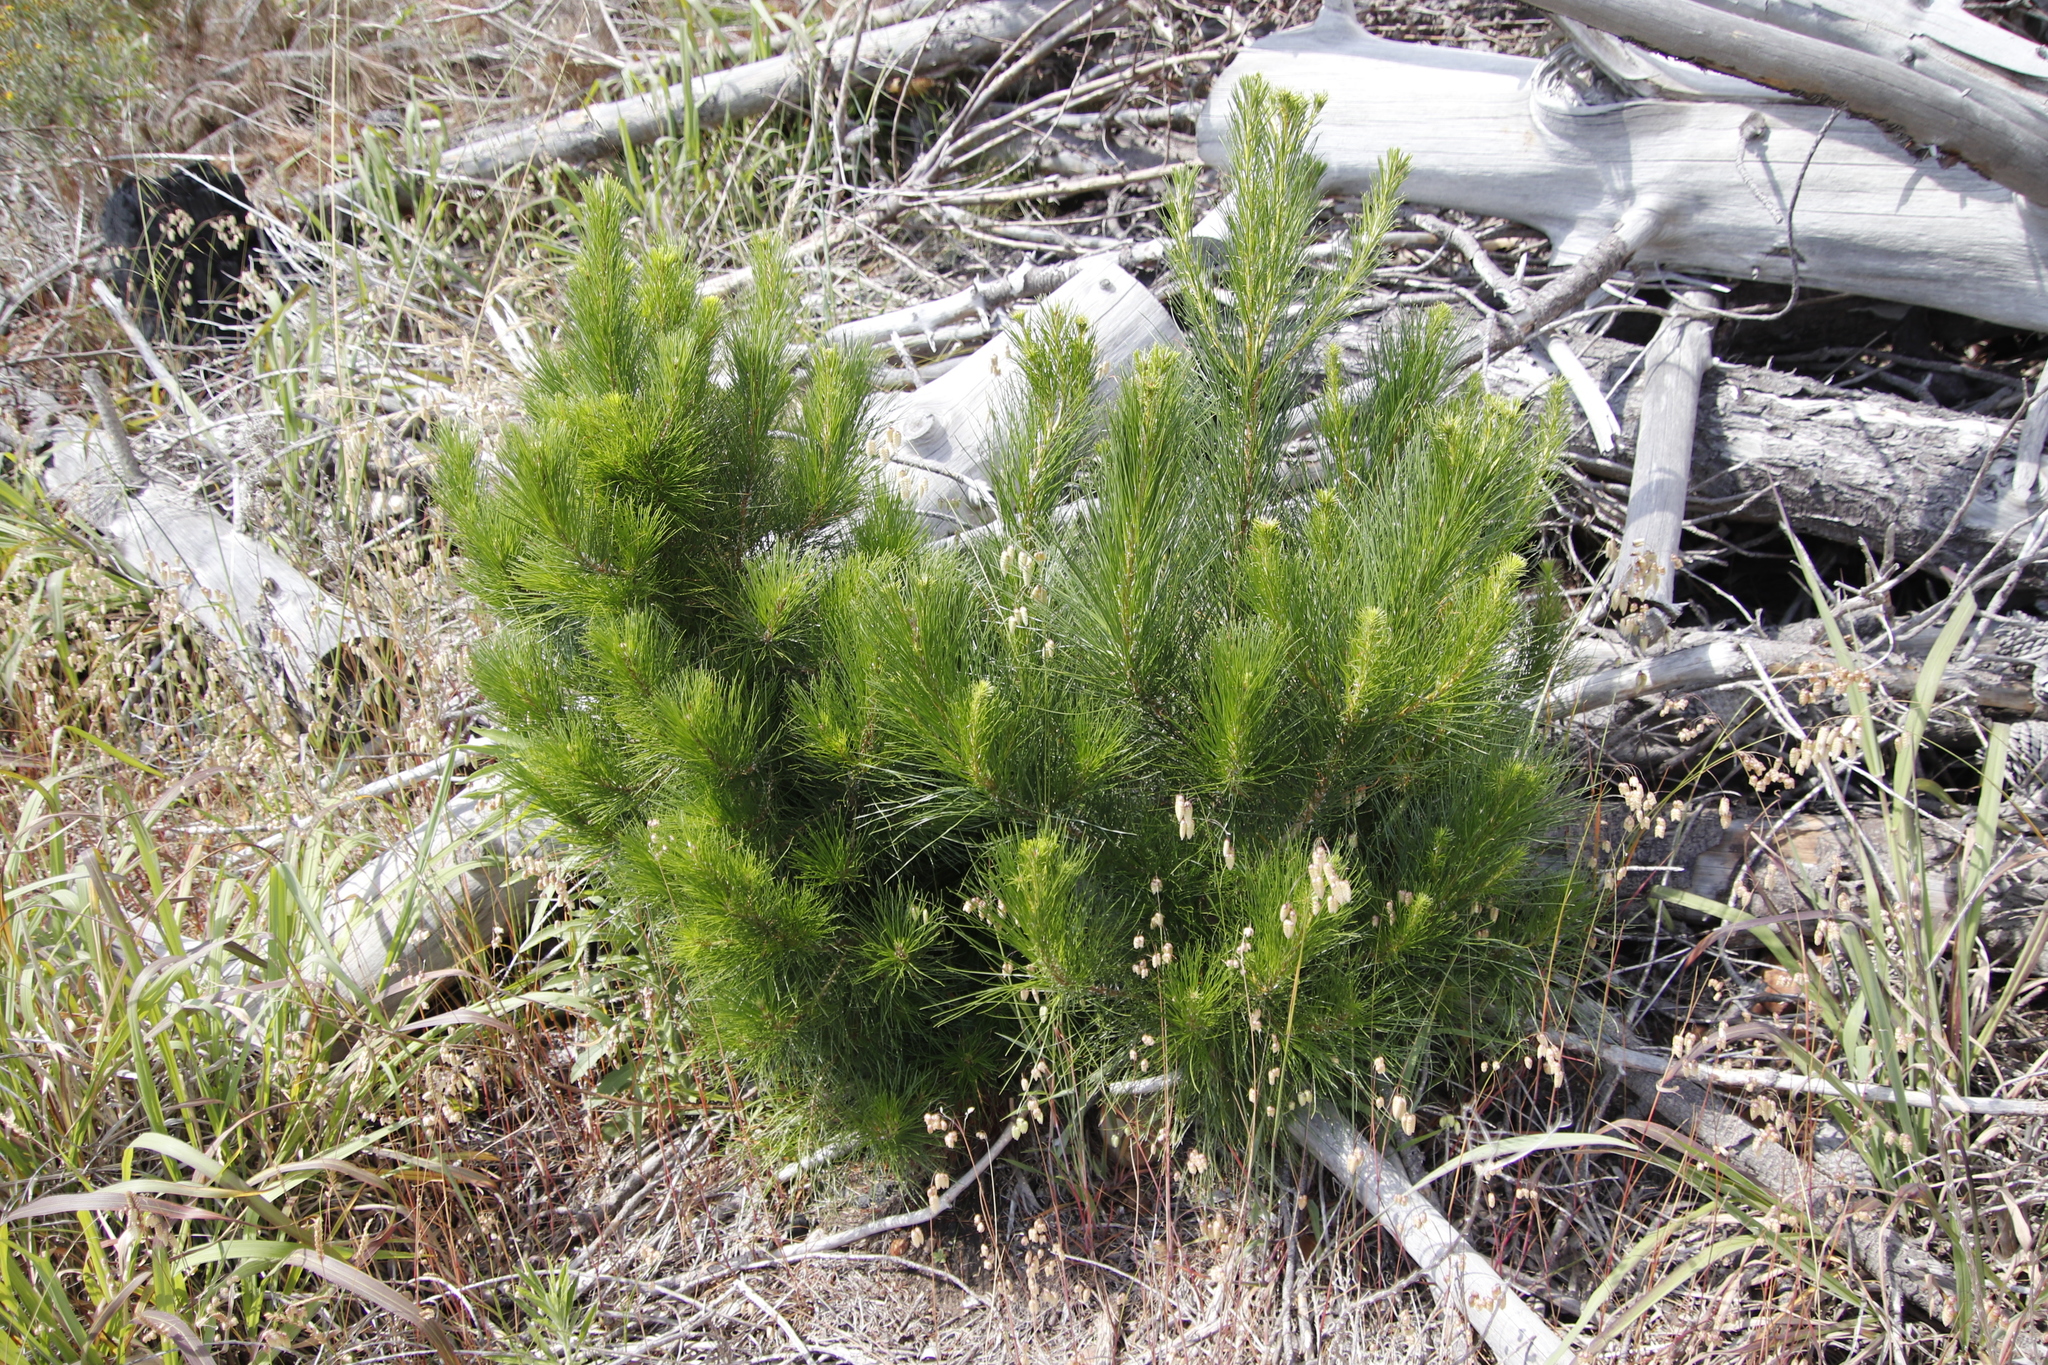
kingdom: Plantae
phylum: Tracheophyta
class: Pinopsida
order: Pinales
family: Pinaceae
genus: Pinus
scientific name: Pinus radiata
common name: Monterey pine
